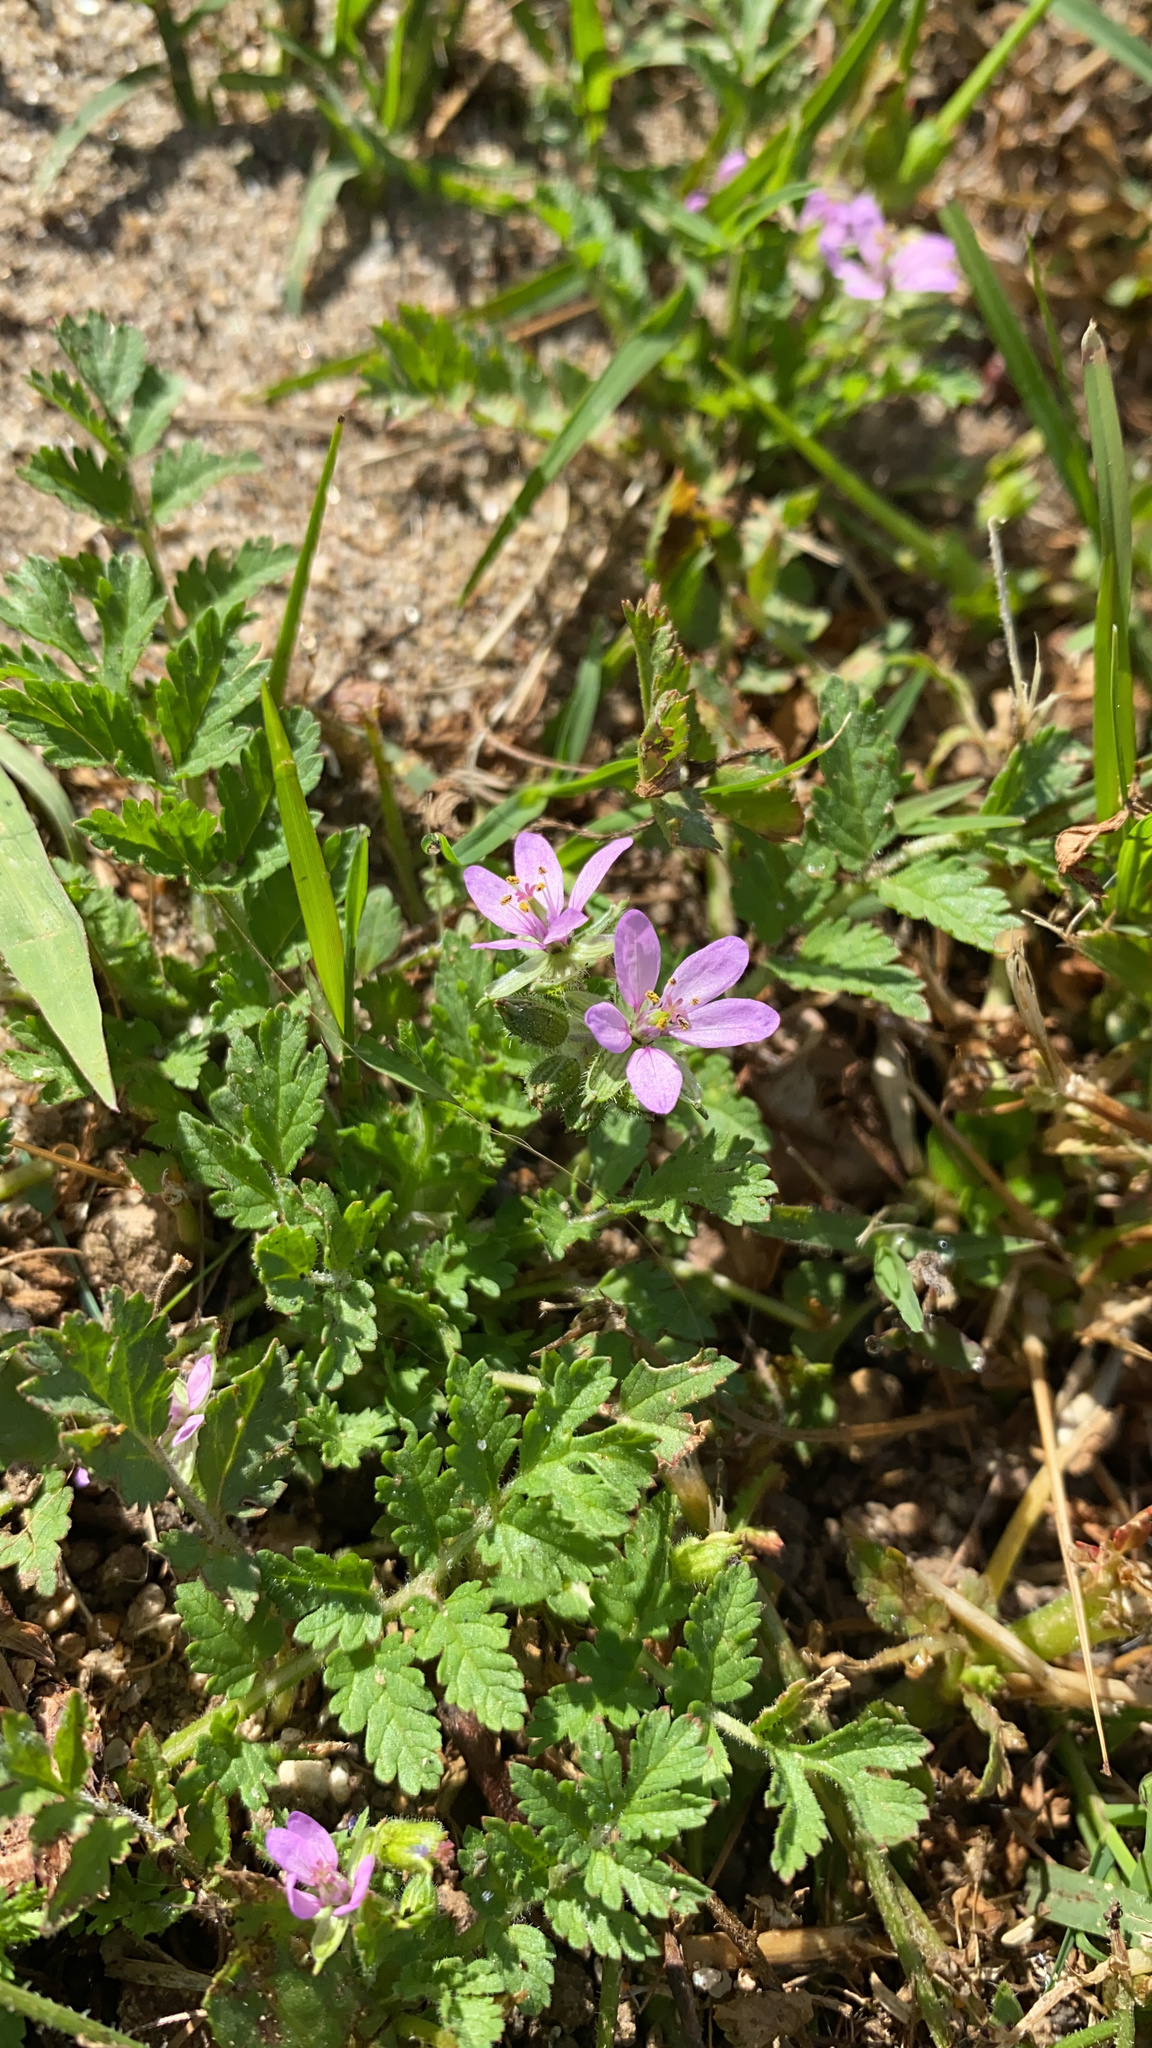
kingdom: Plantae
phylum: Tracheophyta
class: Magnoliopsida
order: Geraniales
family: Geraniaceae
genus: Erodium
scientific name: Erodium moschatum
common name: Musk stork's-bill
